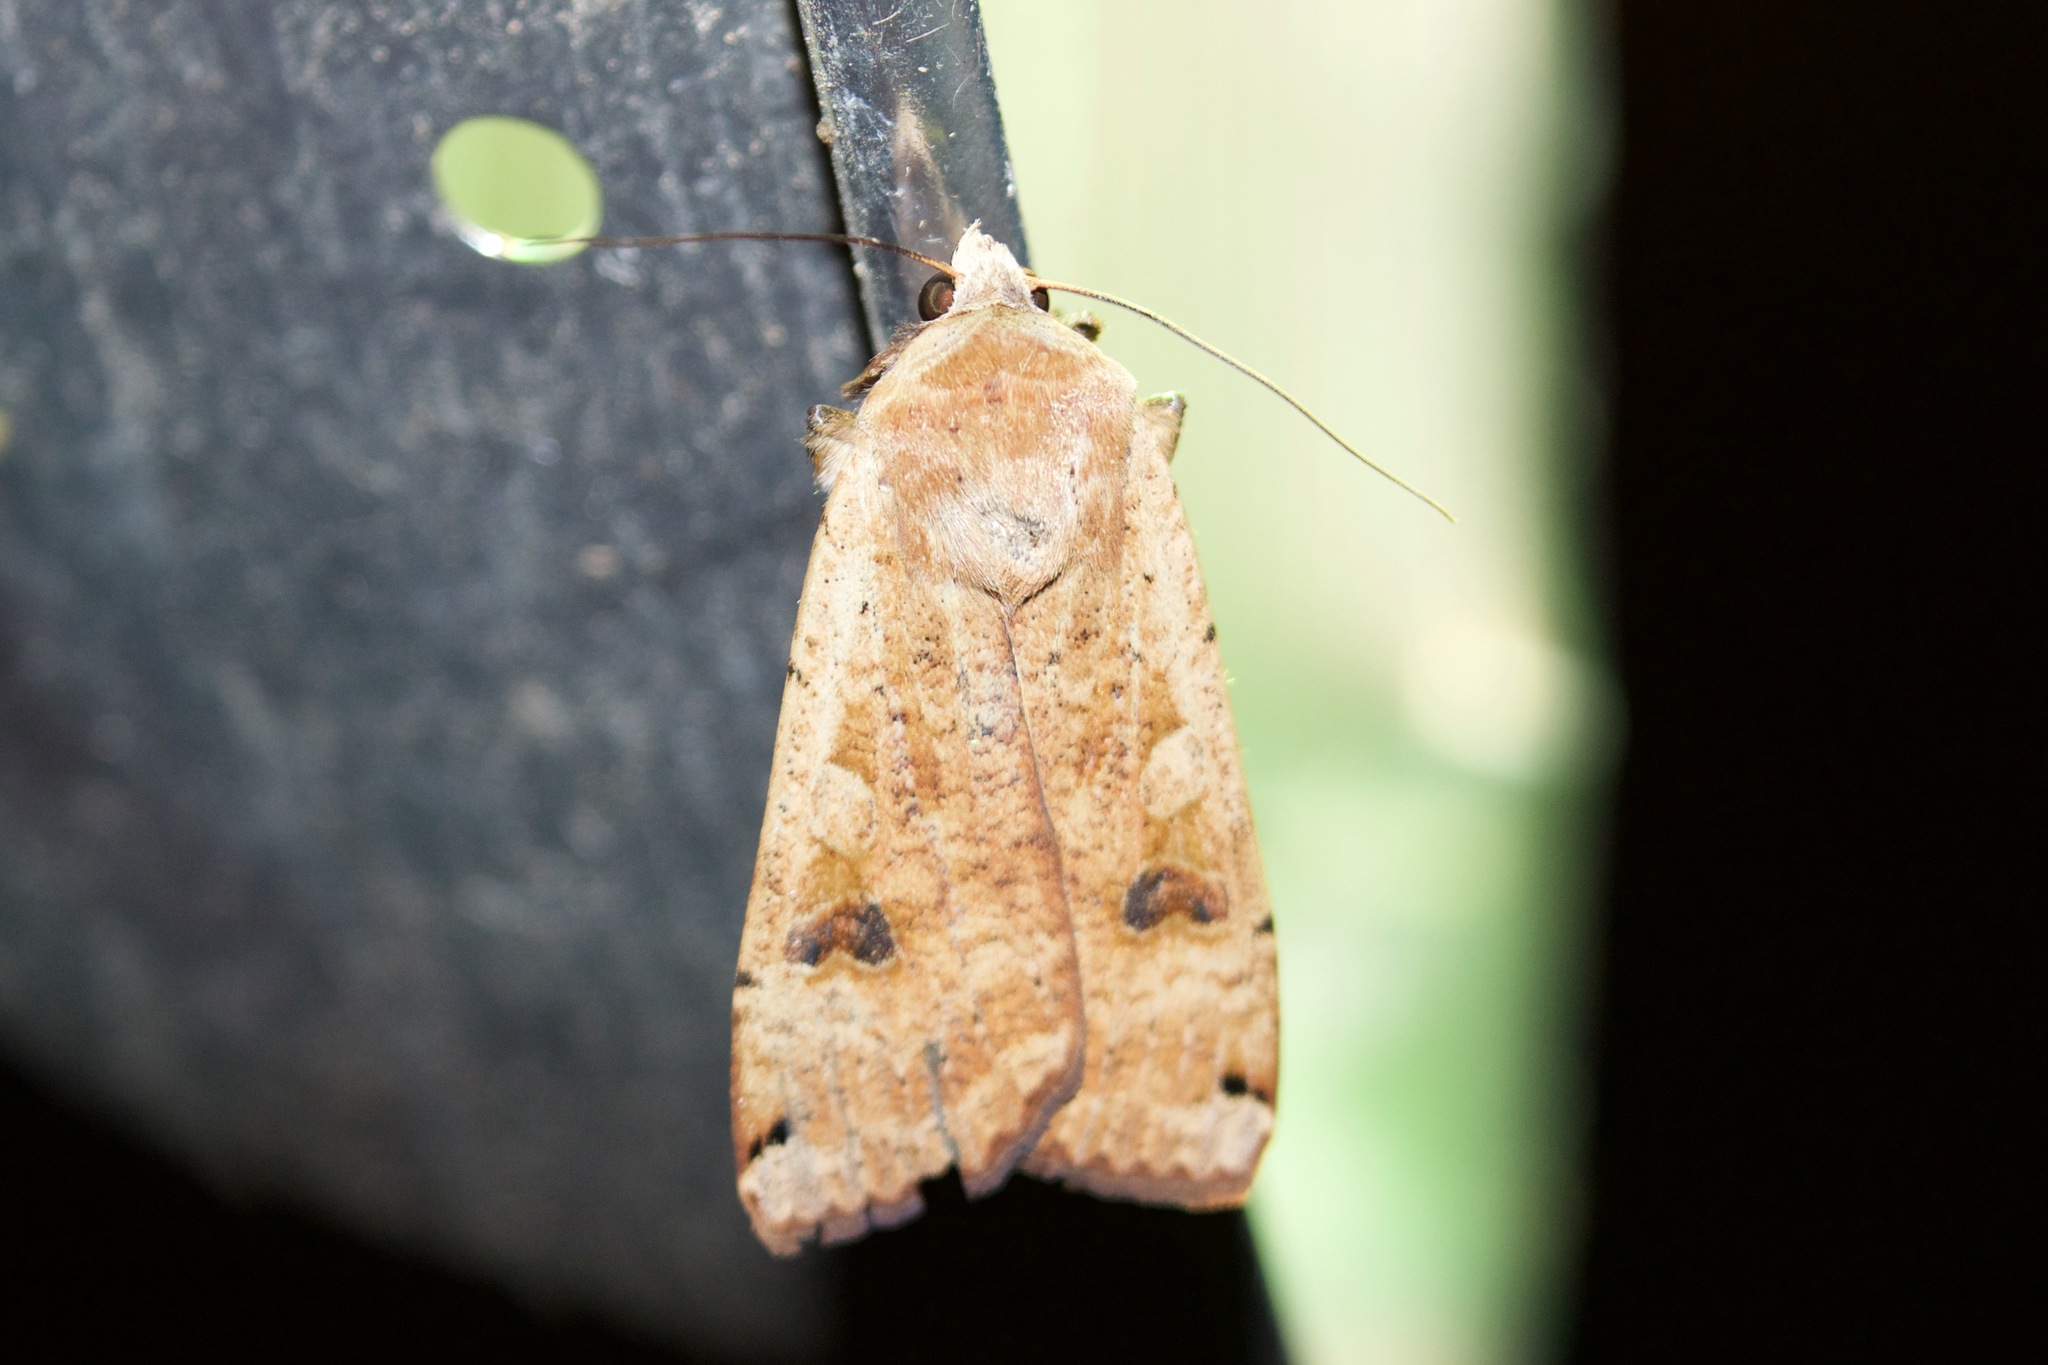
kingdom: Animalia
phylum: Arthropoda
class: Insecta
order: Lepidoptera
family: Noctuidae
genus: Noctua
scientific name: Noctua pronuba
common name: Large yellow underwing
